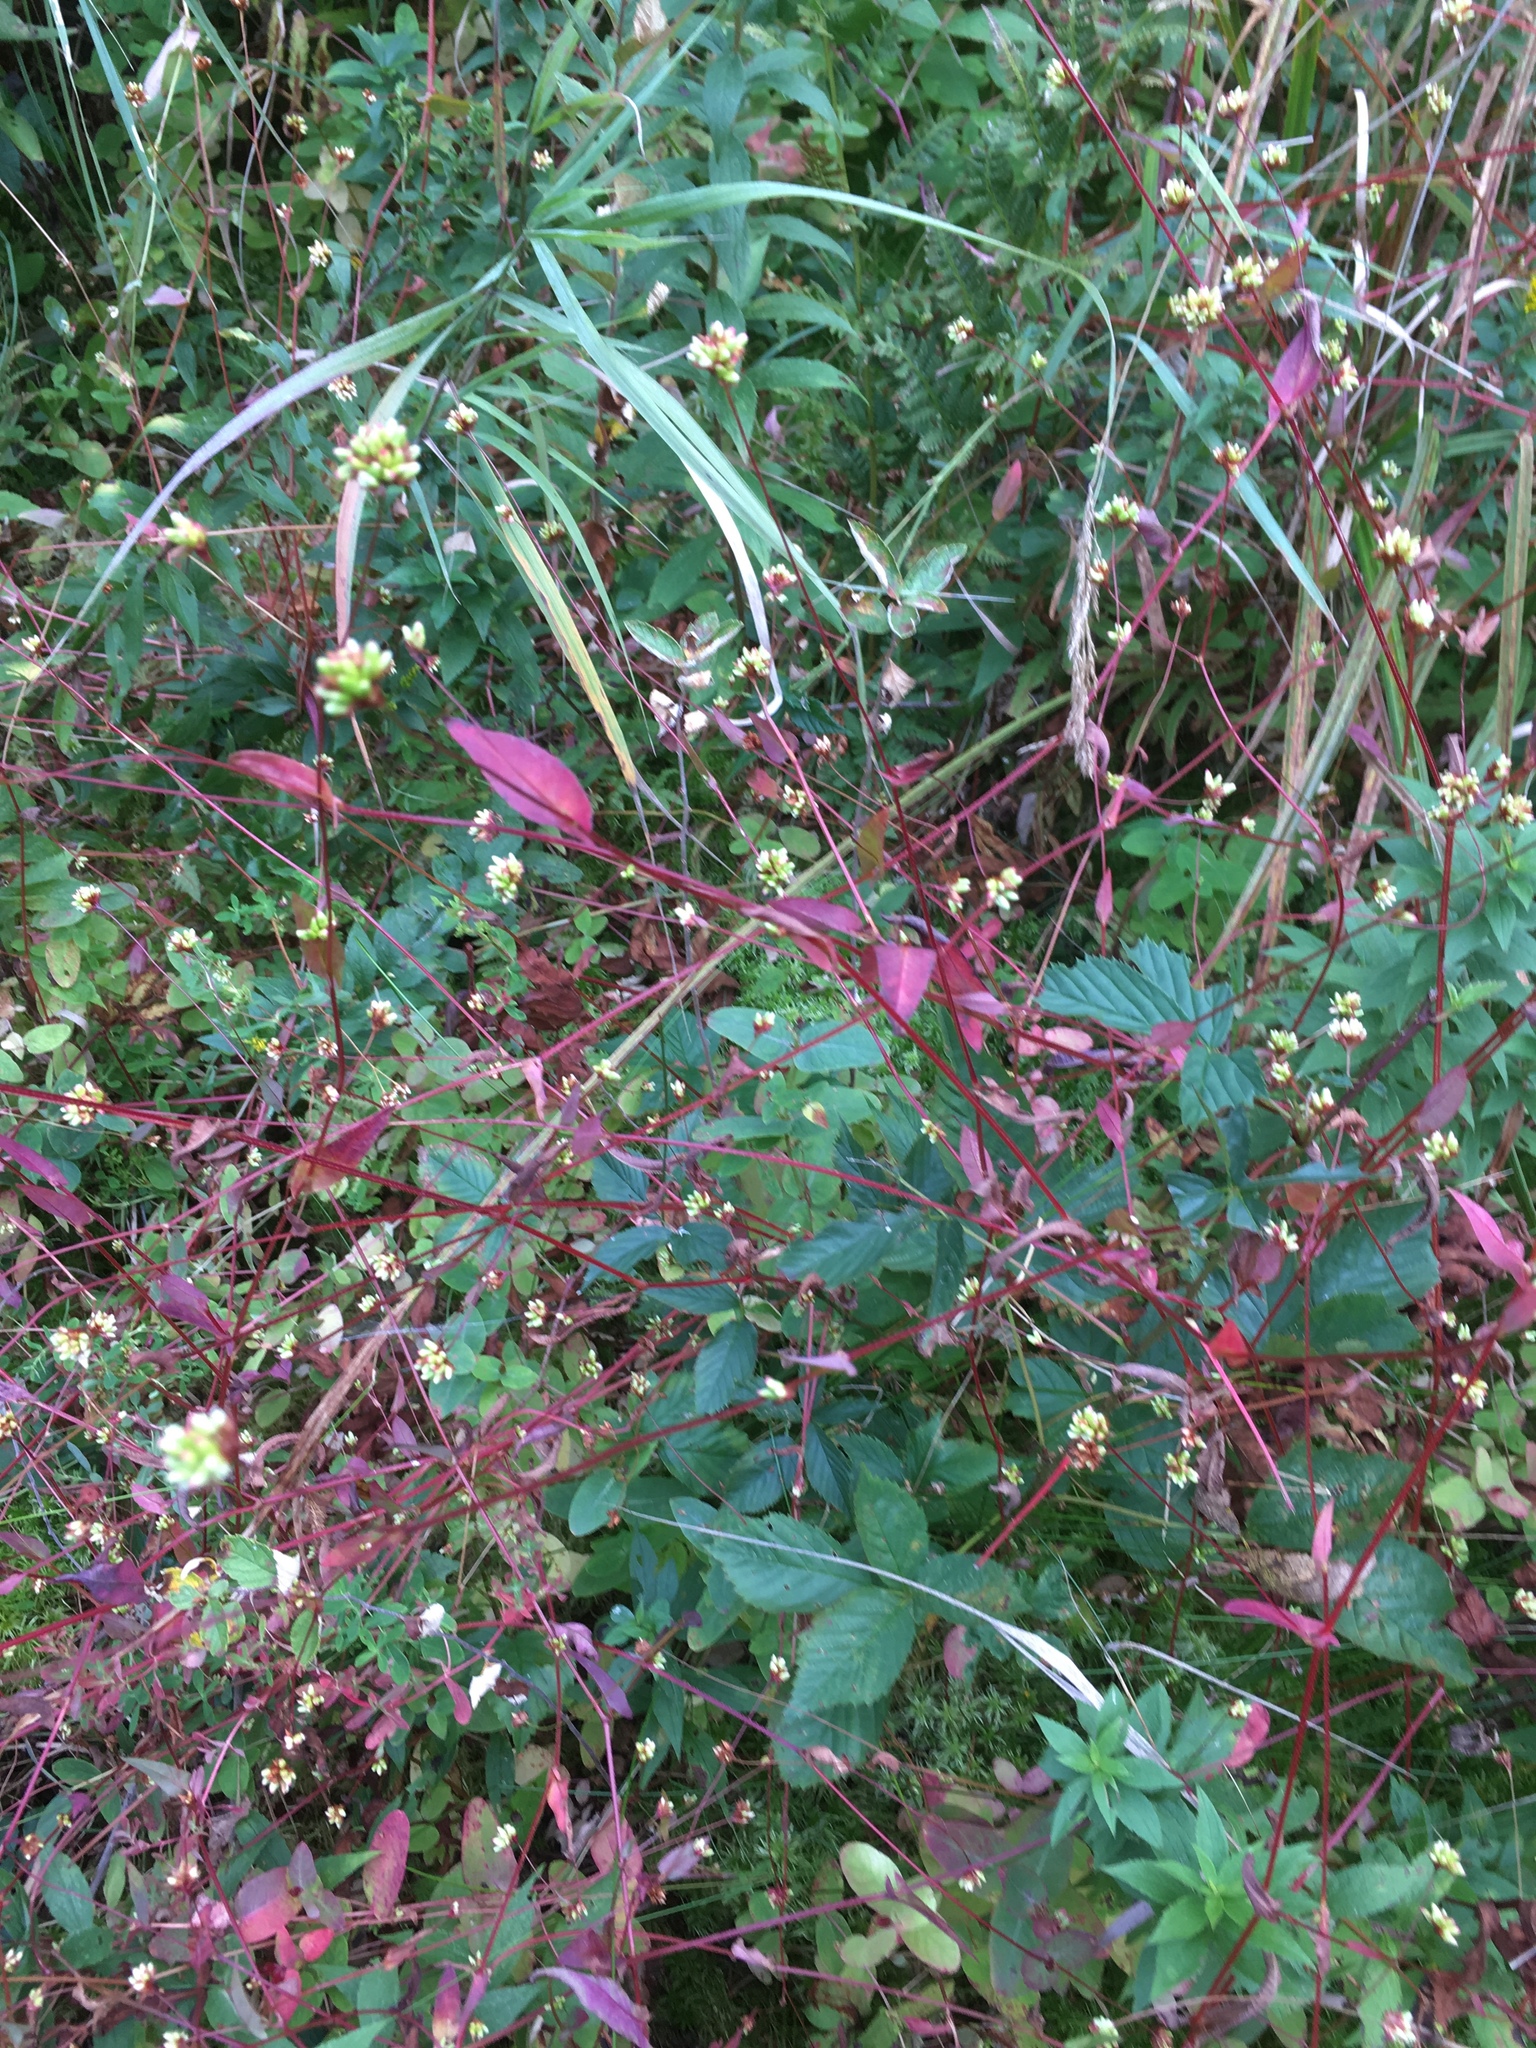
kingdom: Plantae
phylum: Tracheophyta
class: Magnoliopsida
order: Caryophyllales
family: Polygonaceae
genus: Persicaria
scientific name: Persicaria sagittata
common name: American tearthumb
